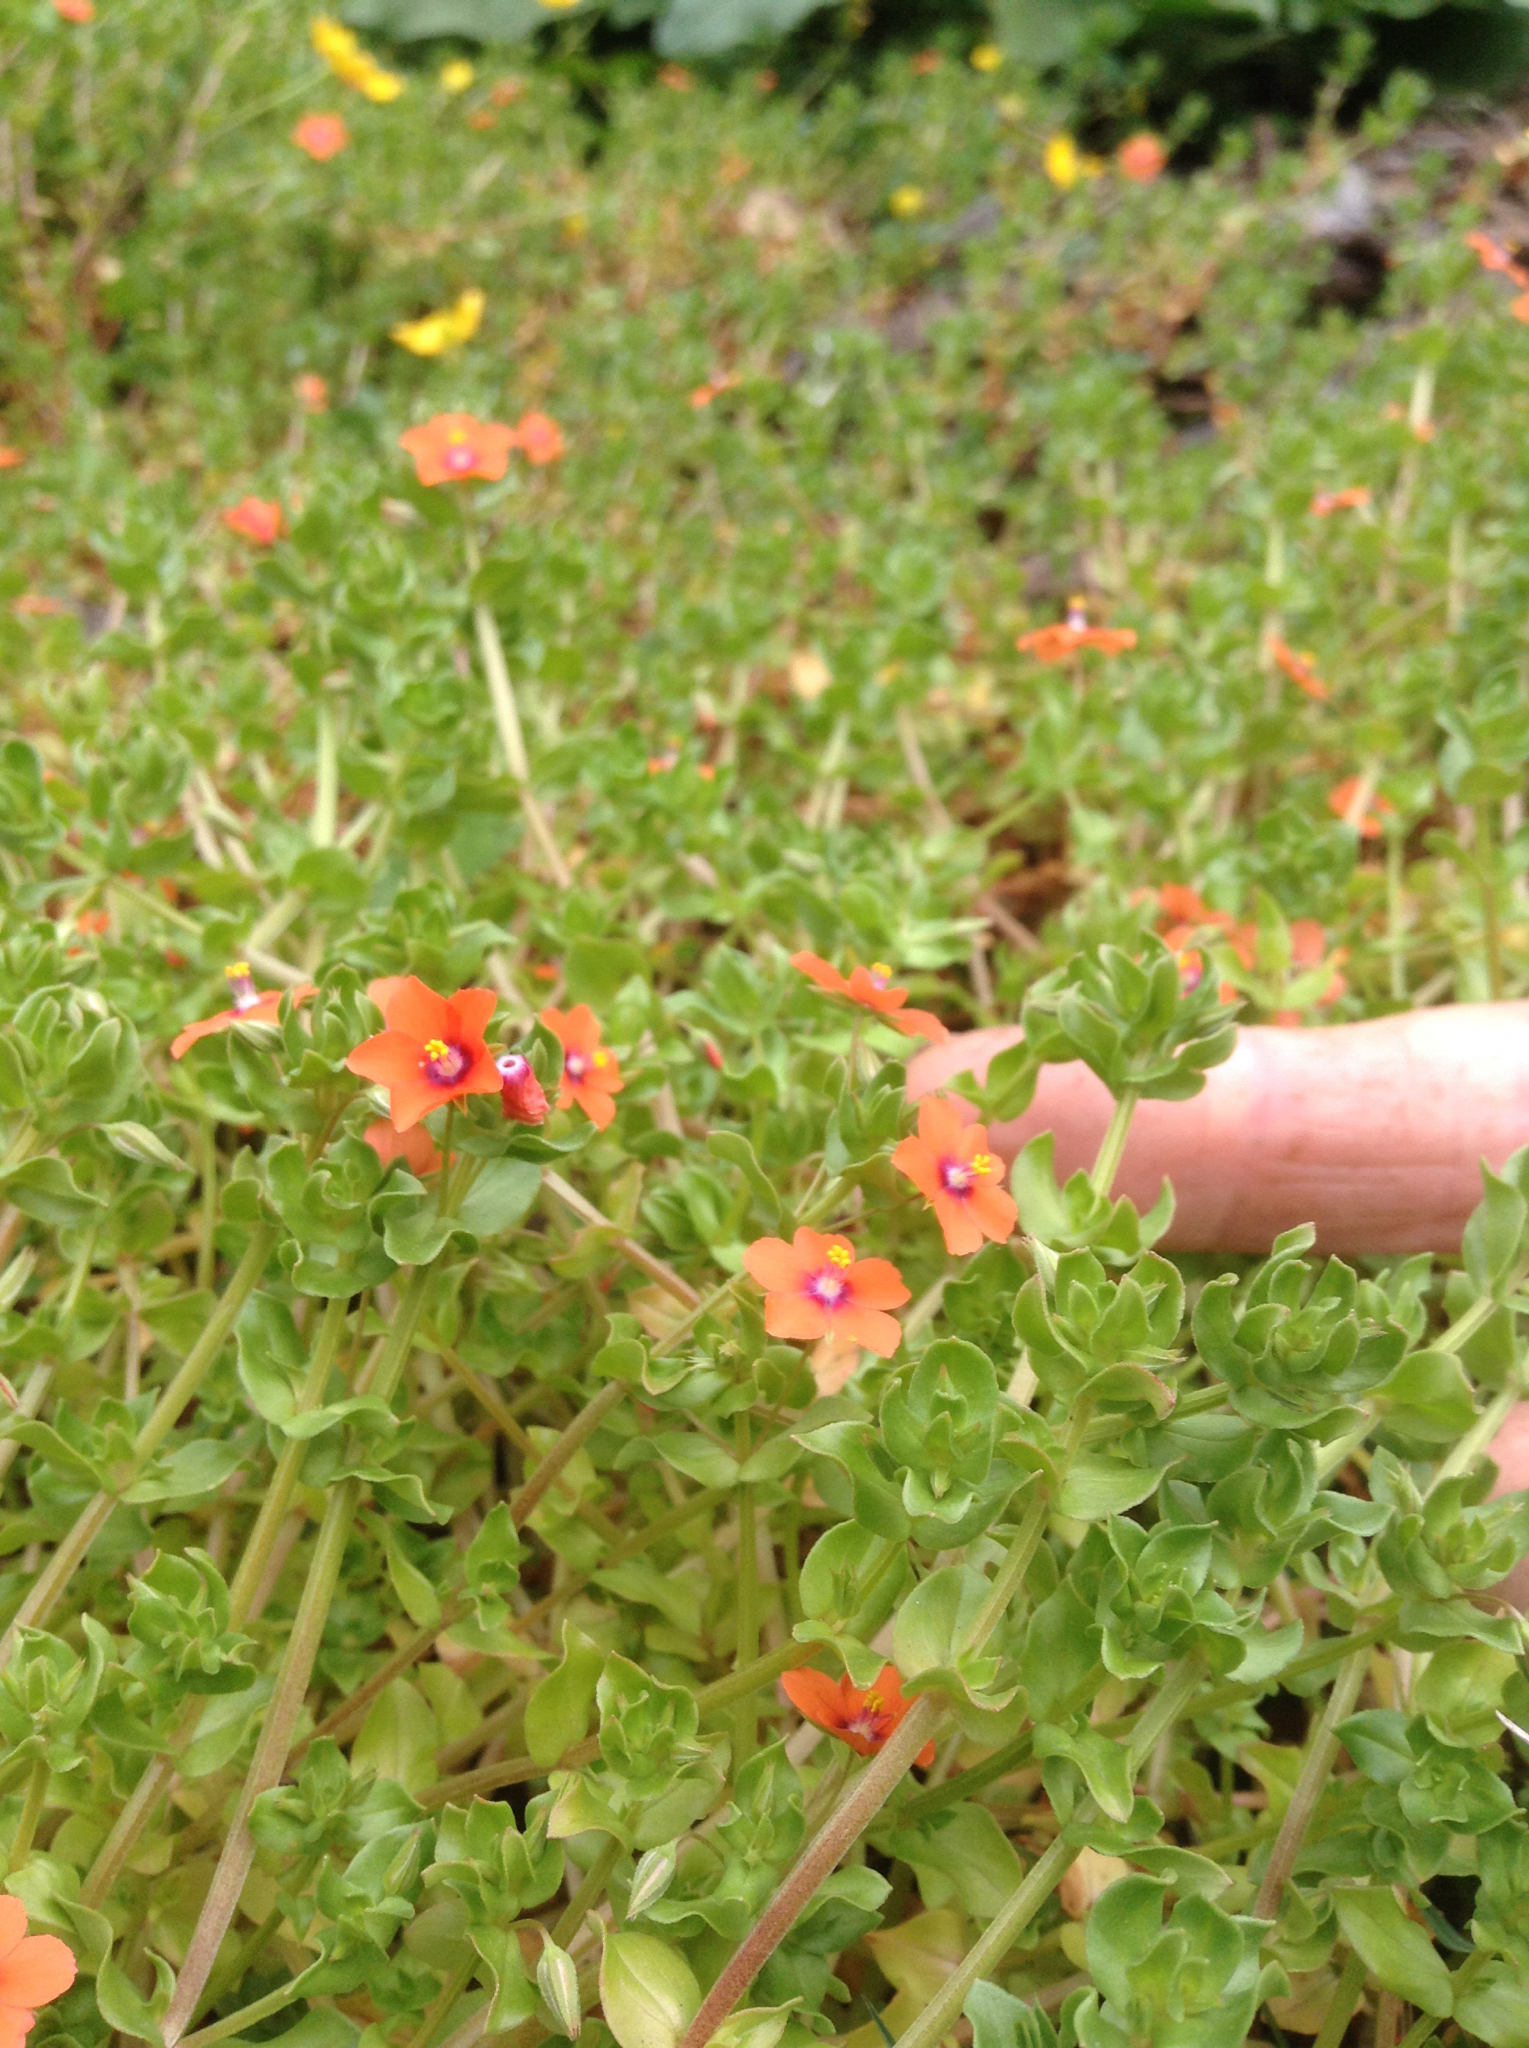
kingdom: Plantae
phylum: Tracheophyta
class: Magnoliopsida
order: Ericales
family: Primulaceae
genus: Lysimachia
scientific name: Lysimachia arvensis
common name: Scarlet pimpernel
